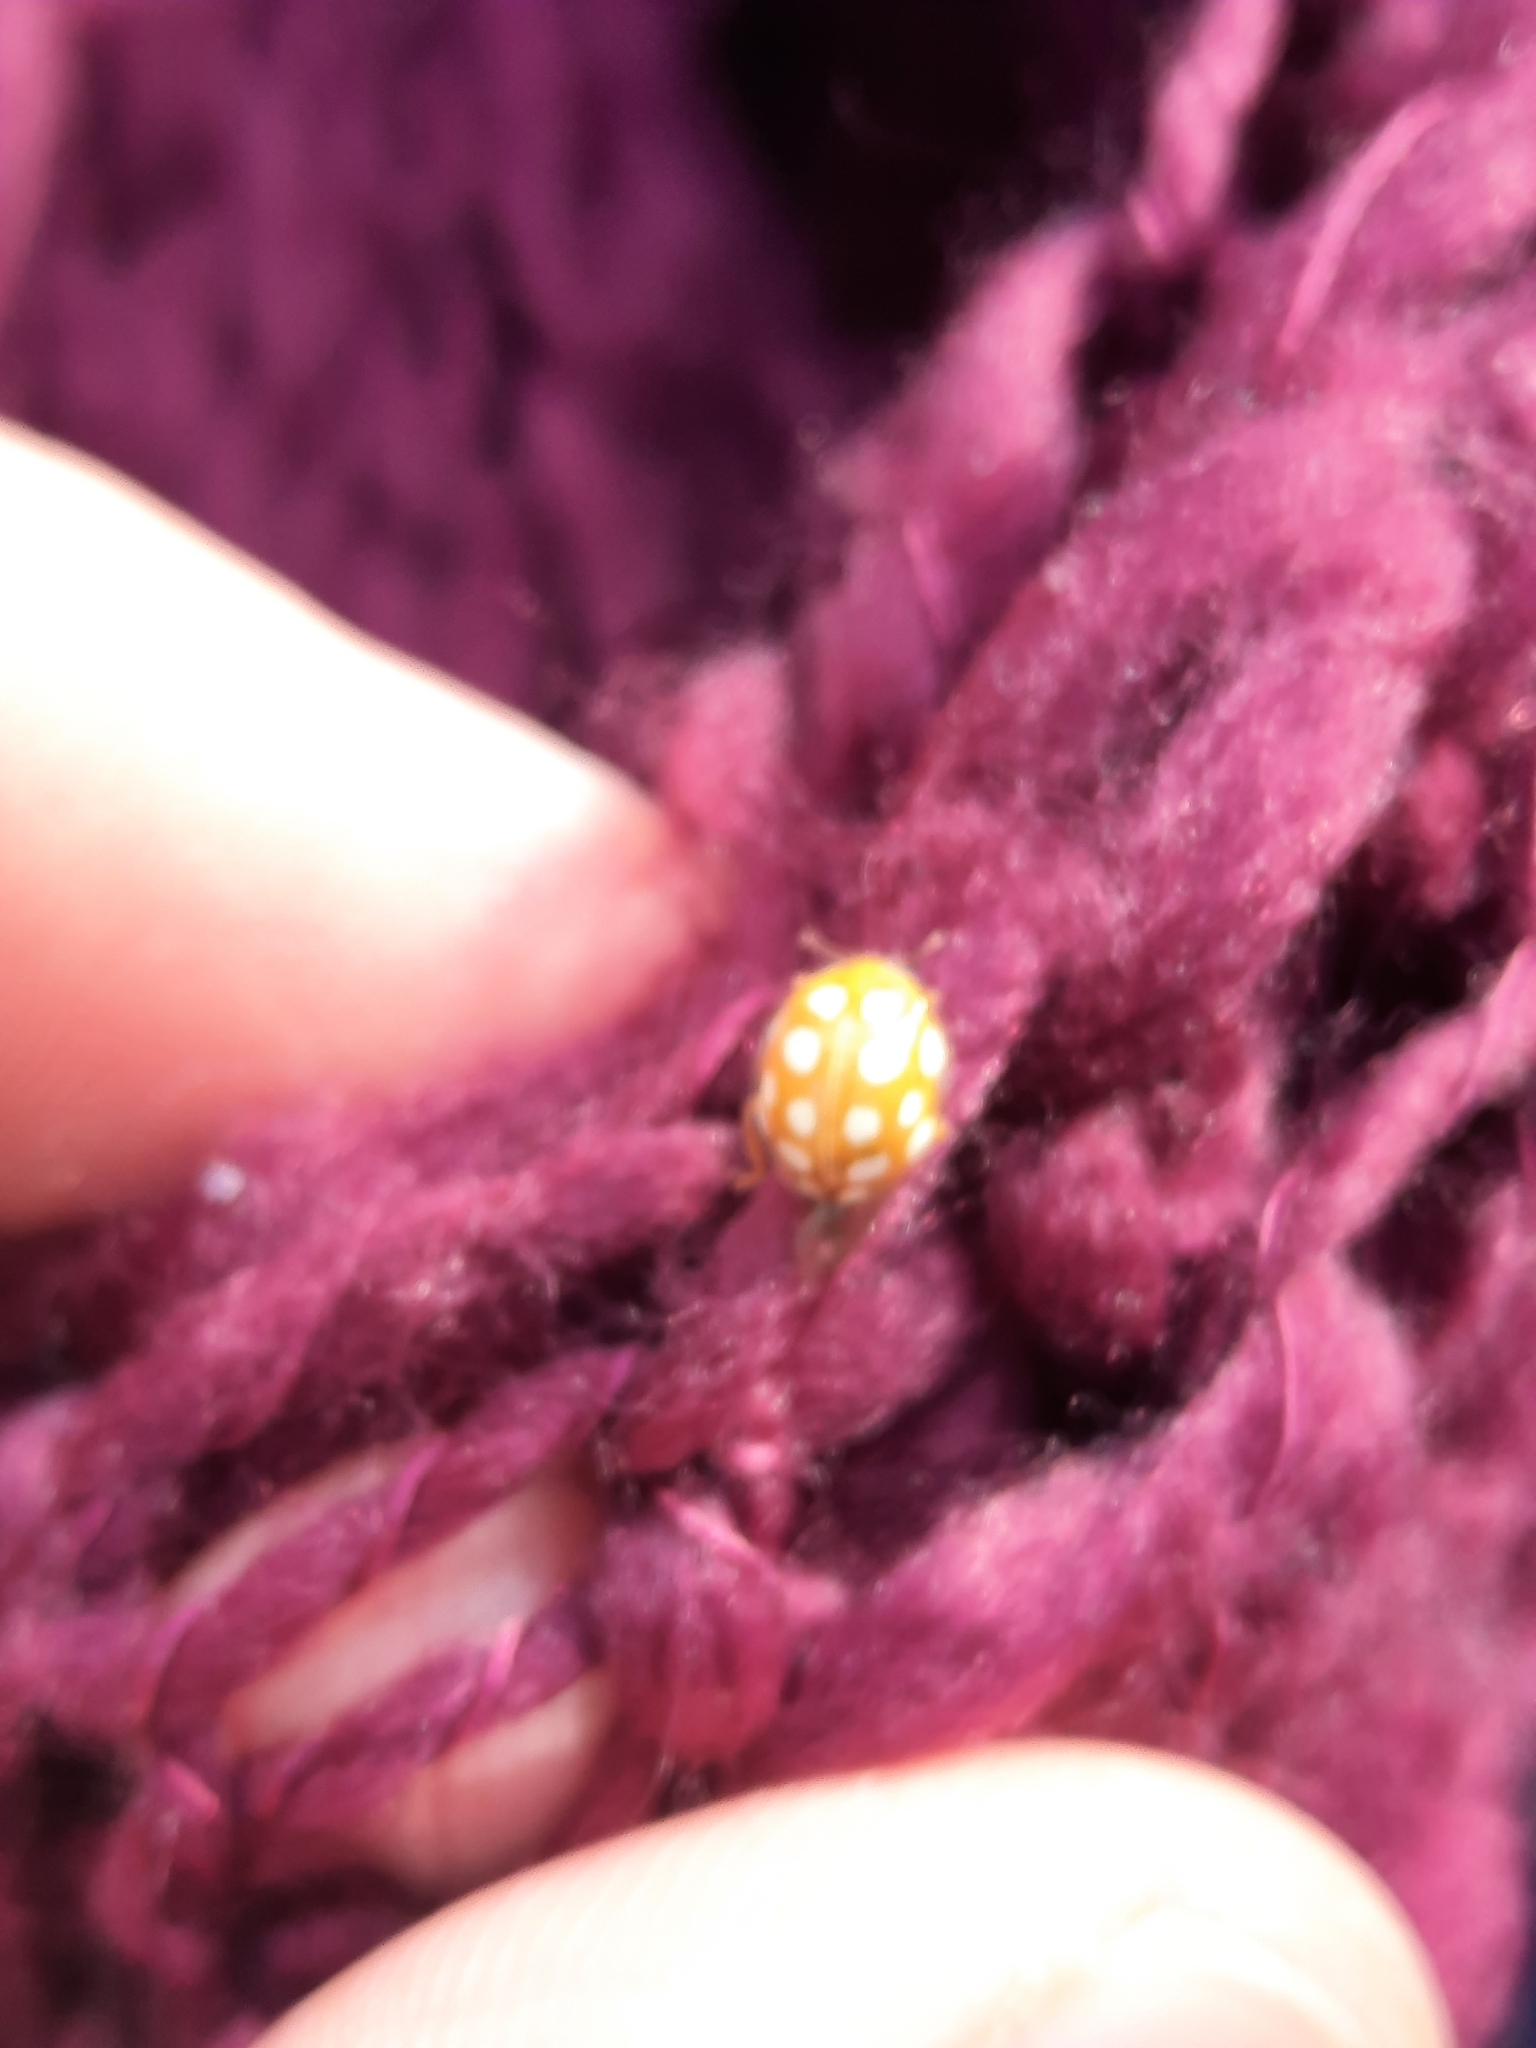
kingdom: Animalia
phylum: Arthropoda
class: Insecta
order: Coleoptera
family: Coccinellidae
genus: Halyzia
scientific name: Halyzia sedecimguttata
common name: Orange ladybird
